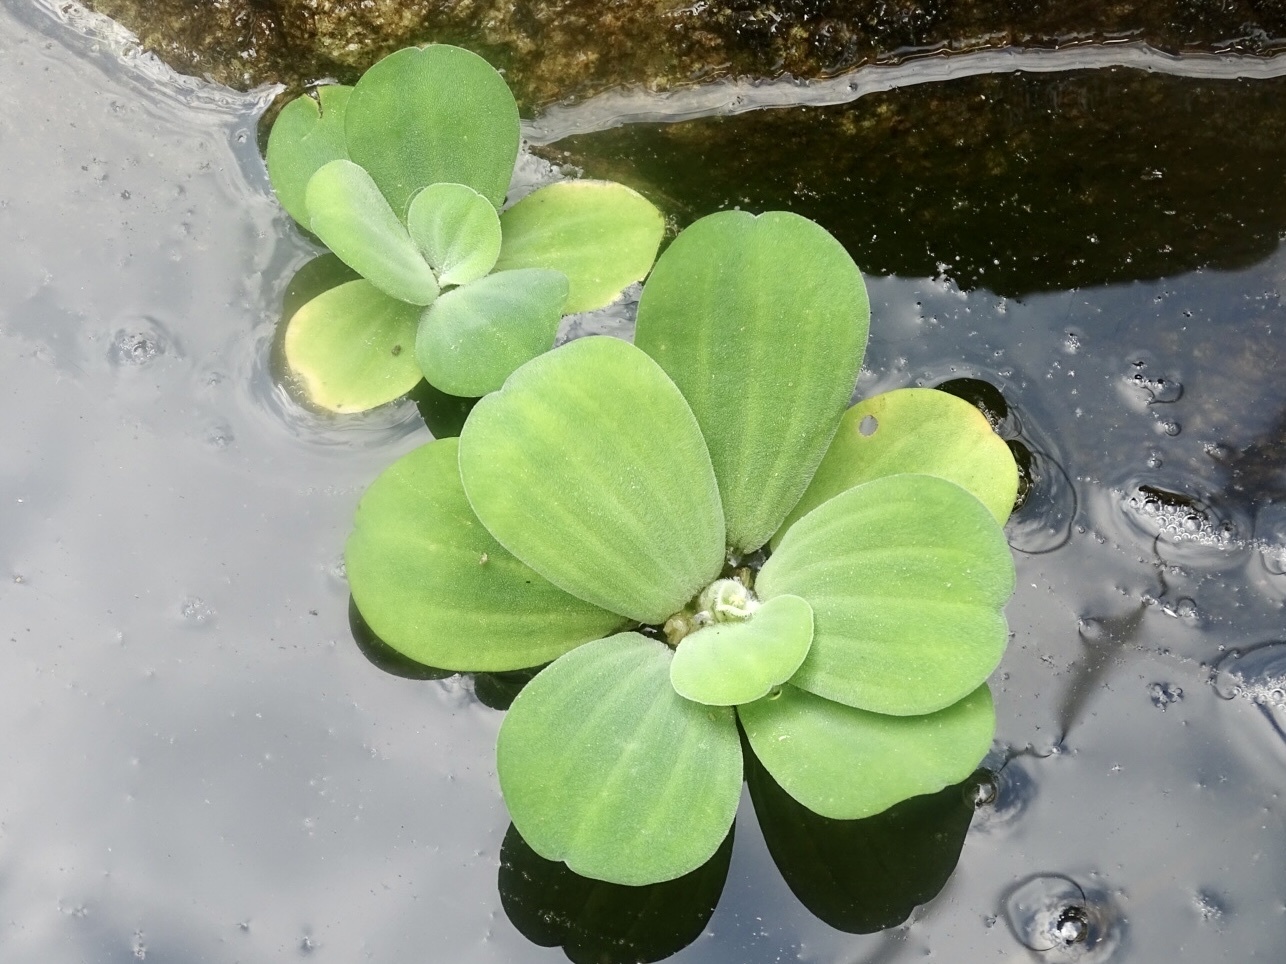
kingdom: Plantae
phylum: Tracheophyta
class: Liliopsida
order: Alismatales
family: Araceae
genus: Pistia
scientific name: Pistia stratiotes
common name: Water lettuce
